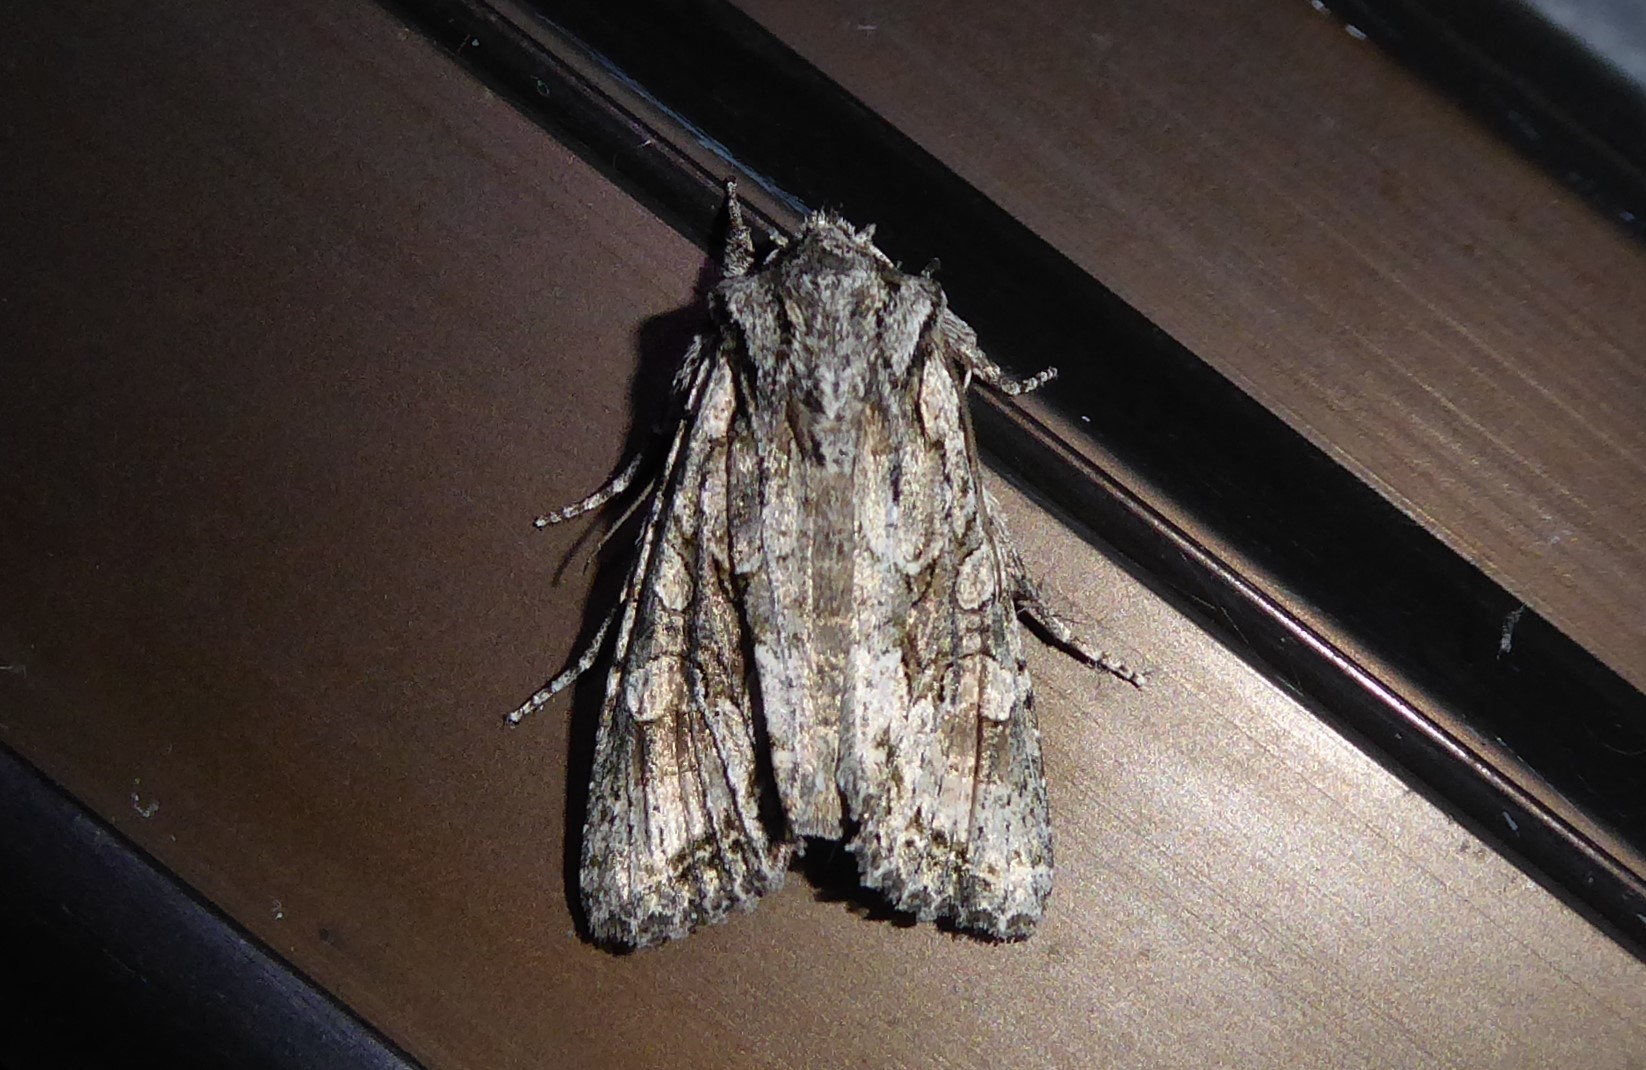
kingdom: Animalia
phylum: Arthropoda
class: Insecta
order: Lepidoptera
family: Noctuidae
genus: Ichneutica
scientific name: Ichneutica mutans
